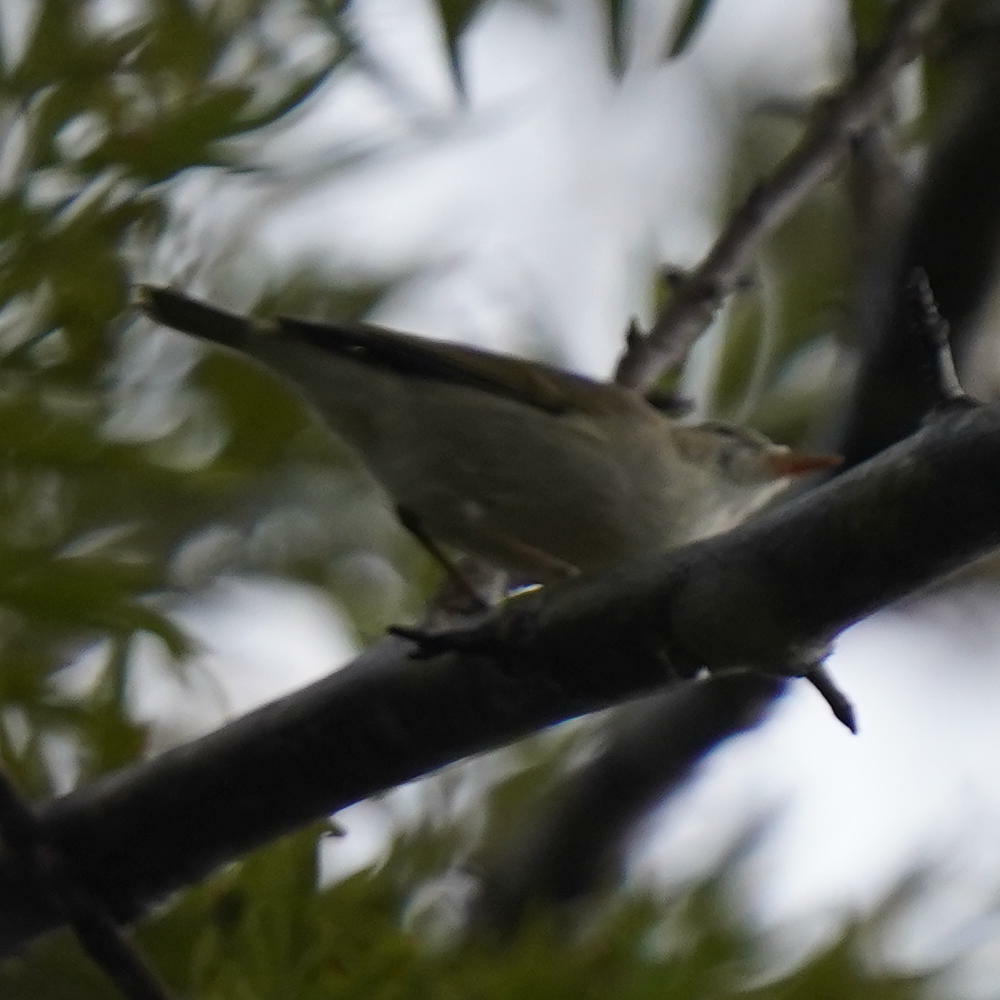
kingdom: Animalia
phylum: Chordata
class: Aves
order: Passeriformes
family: Phylloscopidae
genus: Phylloscopus
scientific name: Phylloscopus trochiloides
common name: Greenish warbler
